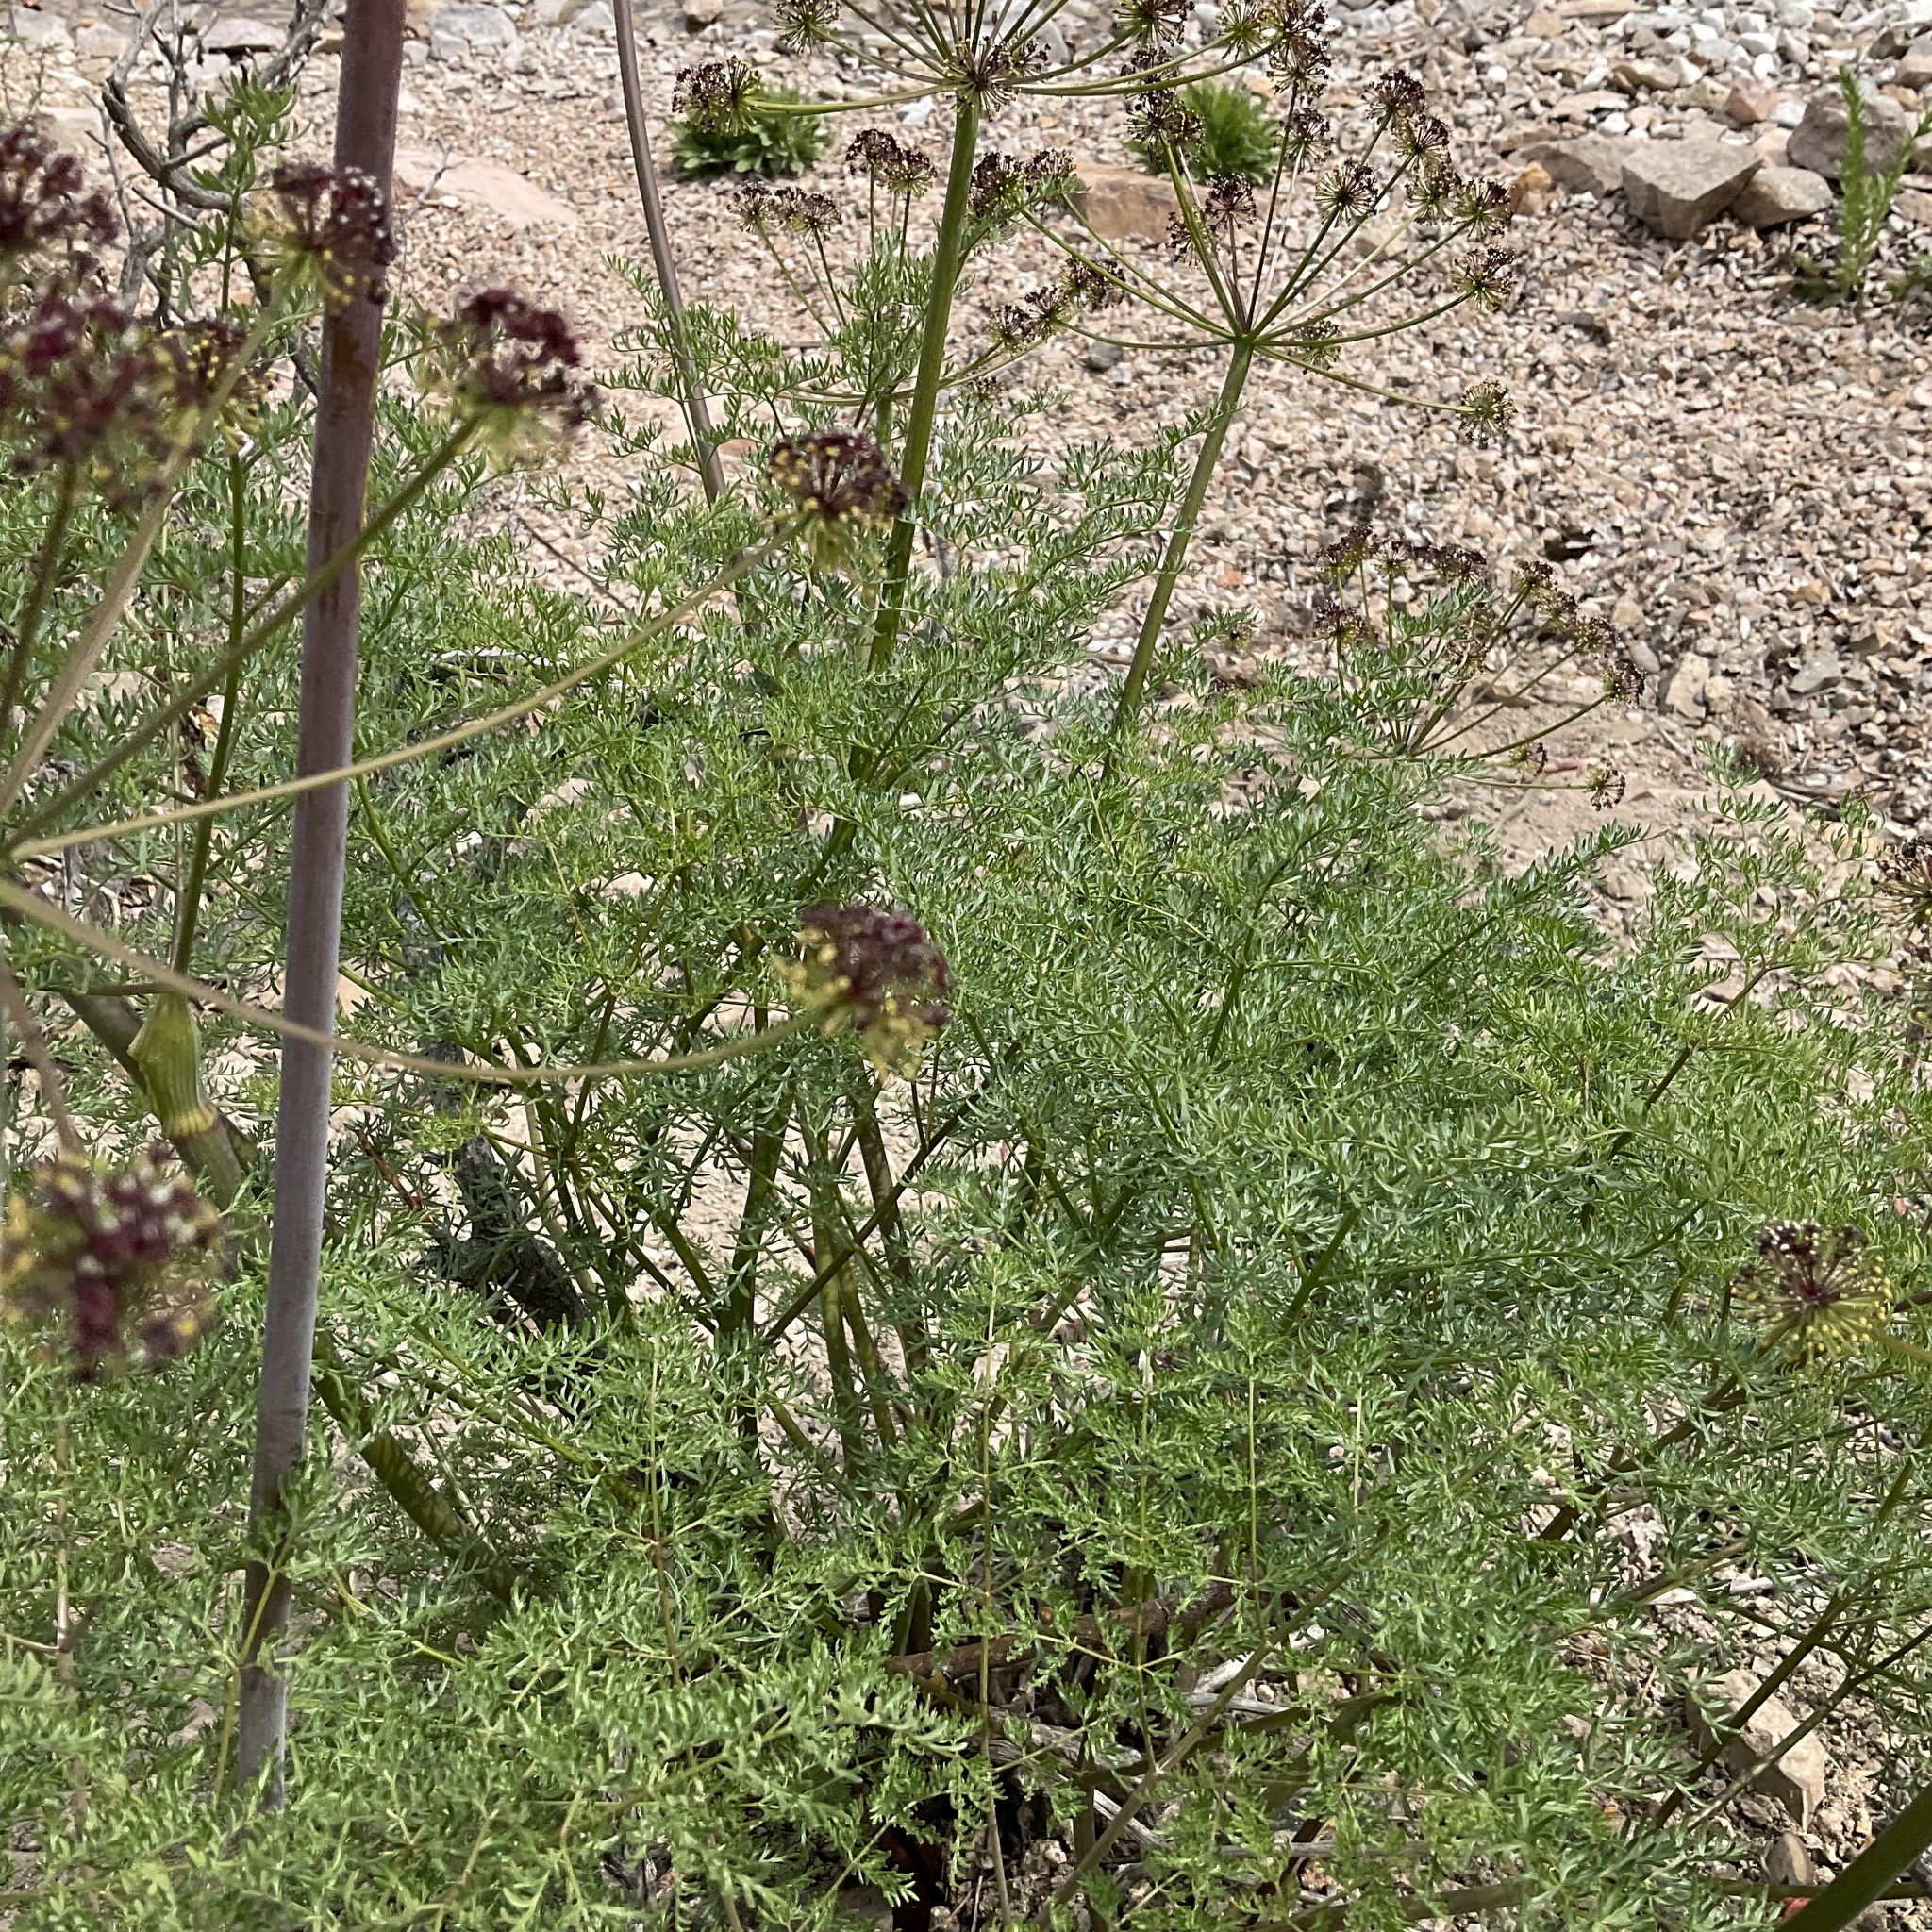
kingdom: Plantae
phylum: Tracheophyta
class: Magnoliopsida
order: Apiales
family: Apiaceae
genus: Lomatium
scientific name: Lomatium multifidum
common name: Carrot-leaved biscuitroot
